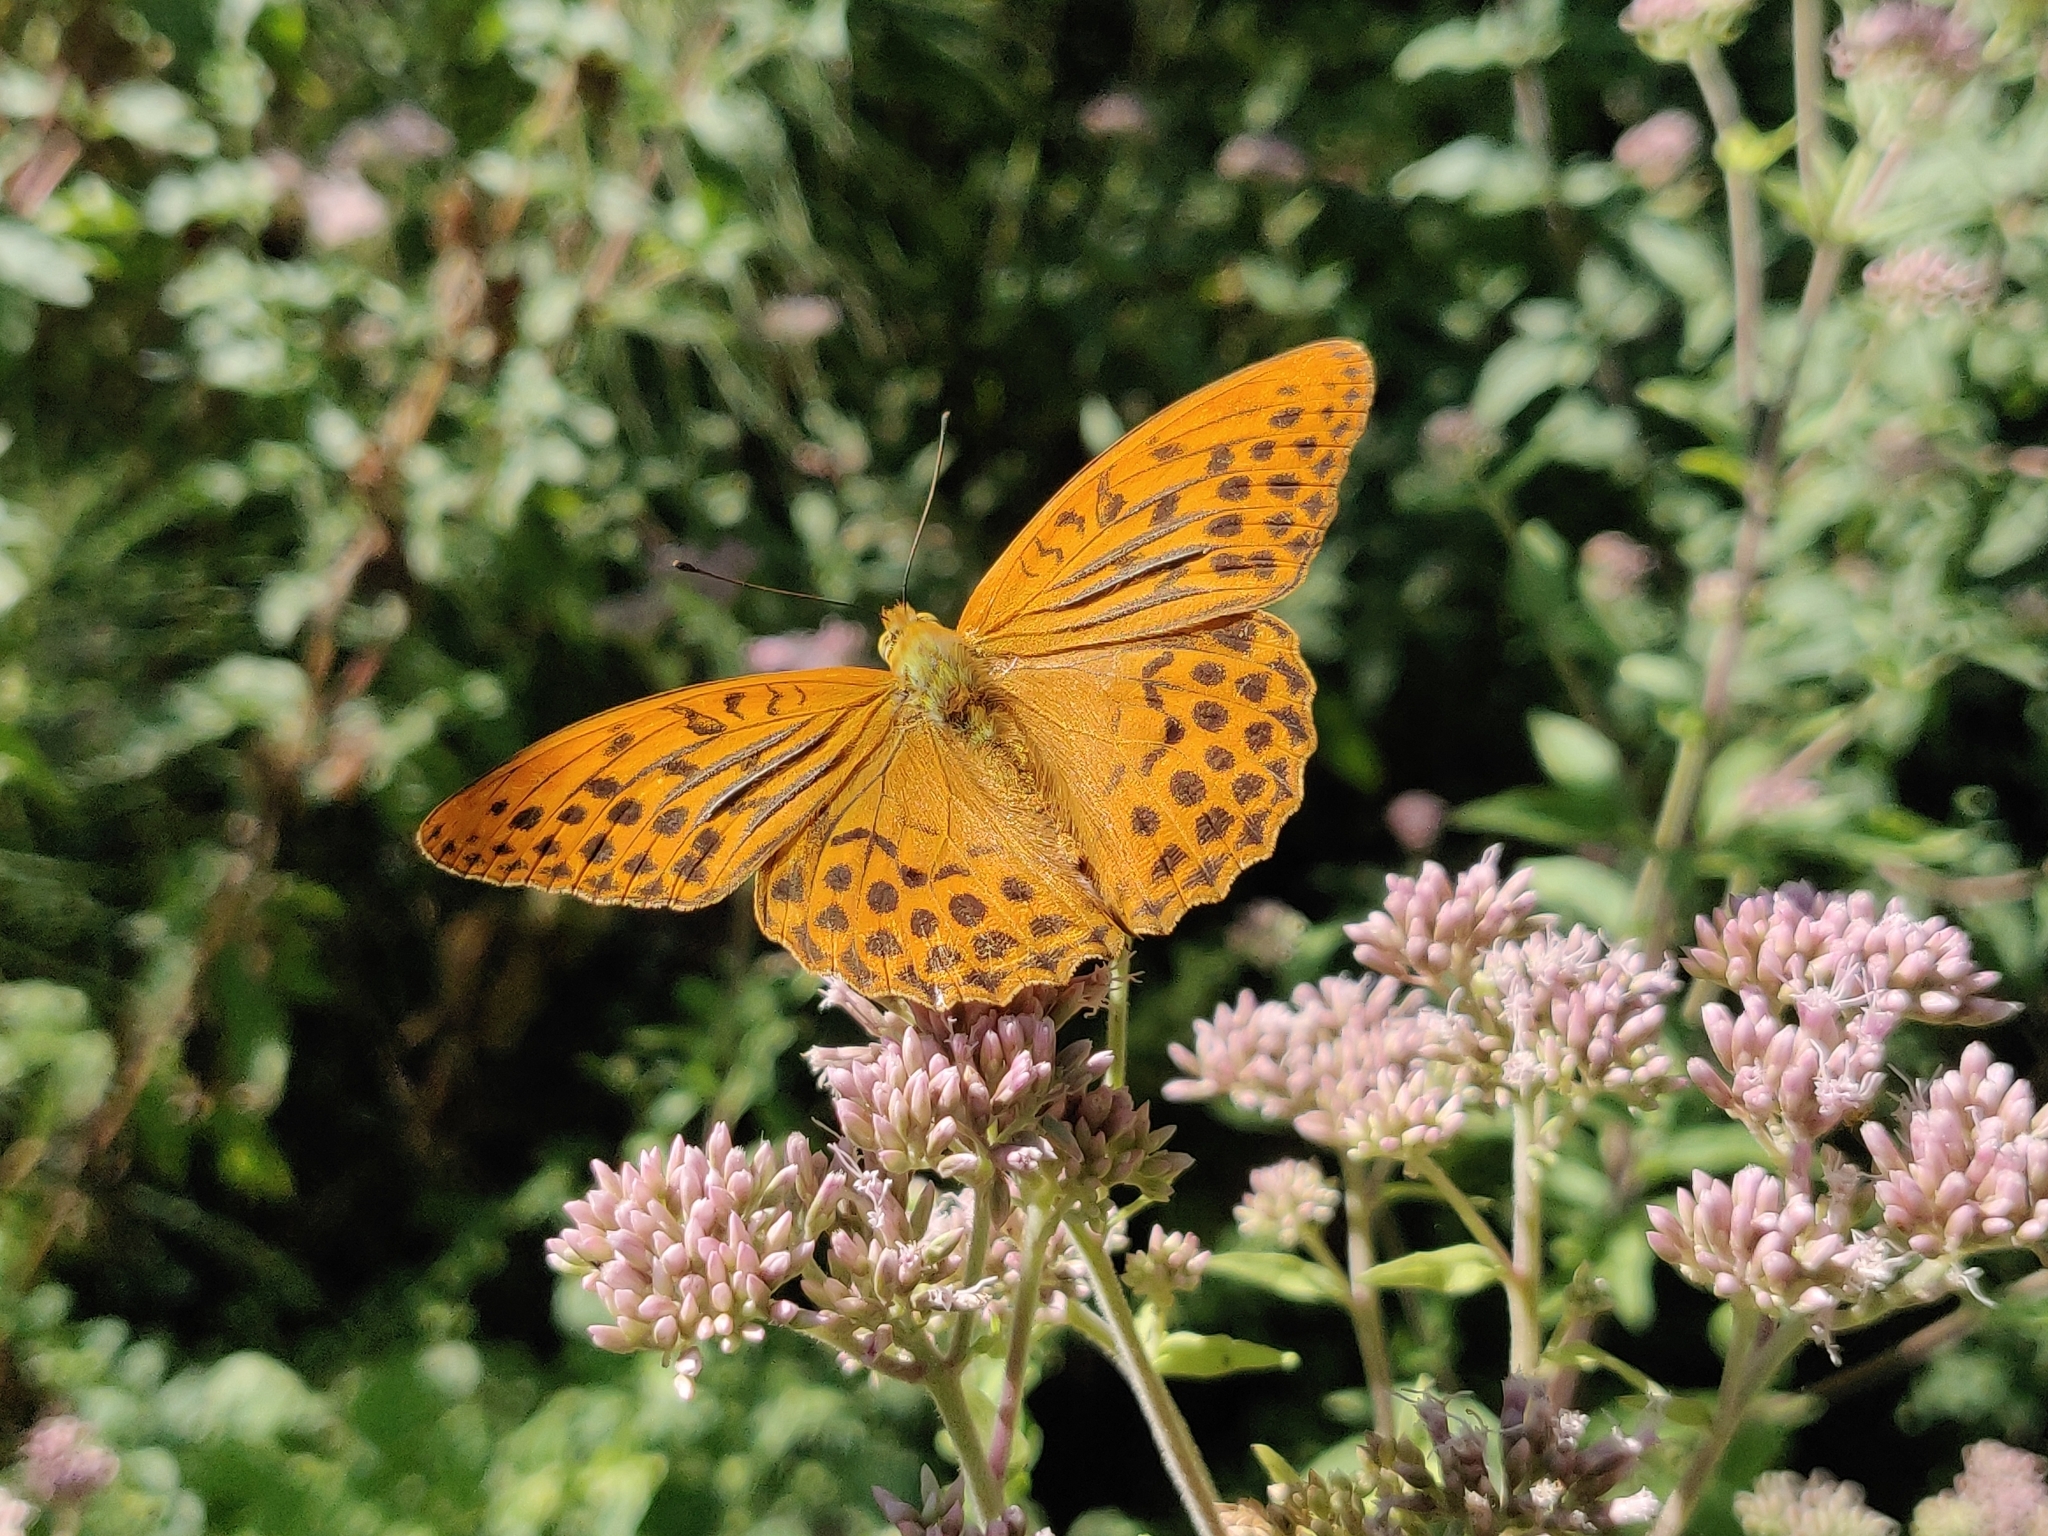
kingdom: Animalia
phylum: Arthropoda
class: Insecta
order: Lepidoptera
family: Nymphalidae
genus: Argynnis
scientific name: Argynnis paphia
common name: Silver-washed fritillary
